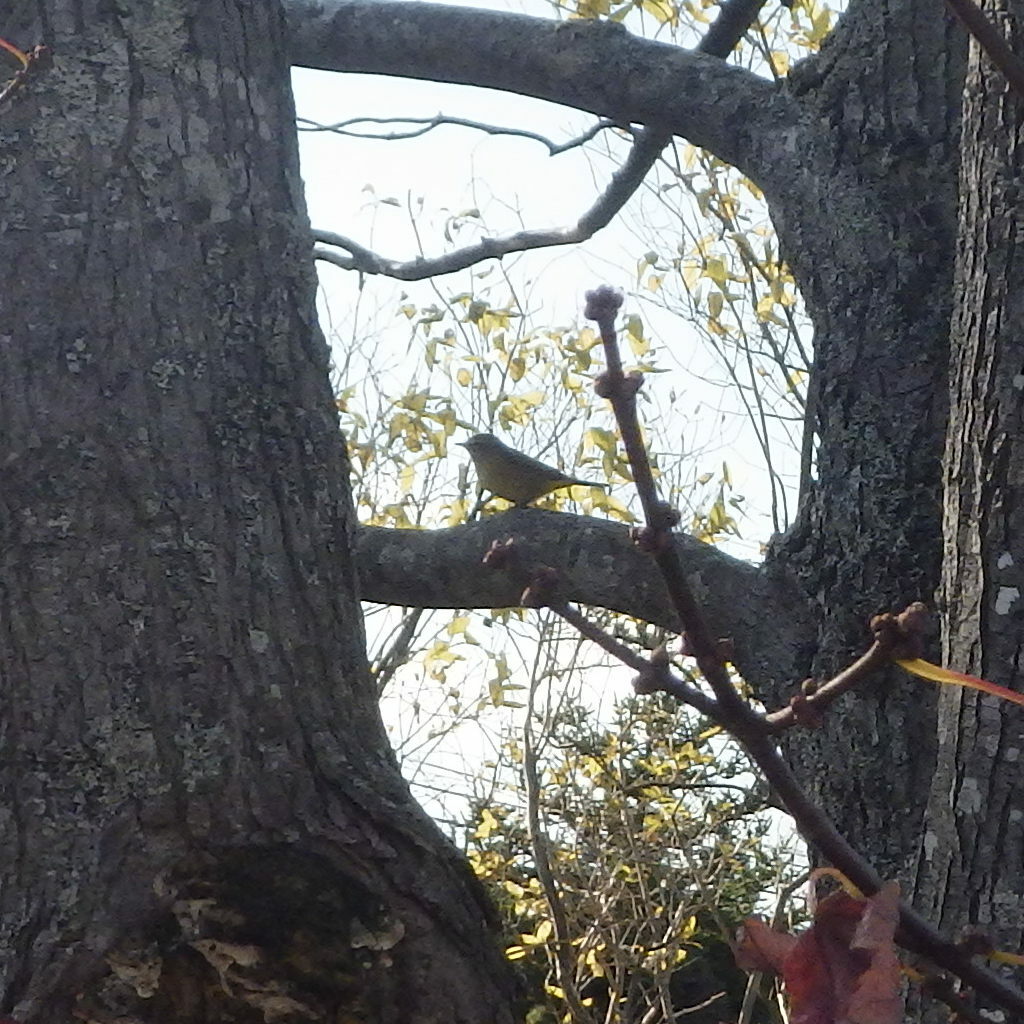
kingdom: Animalia
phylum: Chordata
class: Aves
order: Passeriformes
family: Parulidae
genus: Setophaga
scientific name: Setophaga palmarum
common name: Palm warbler
